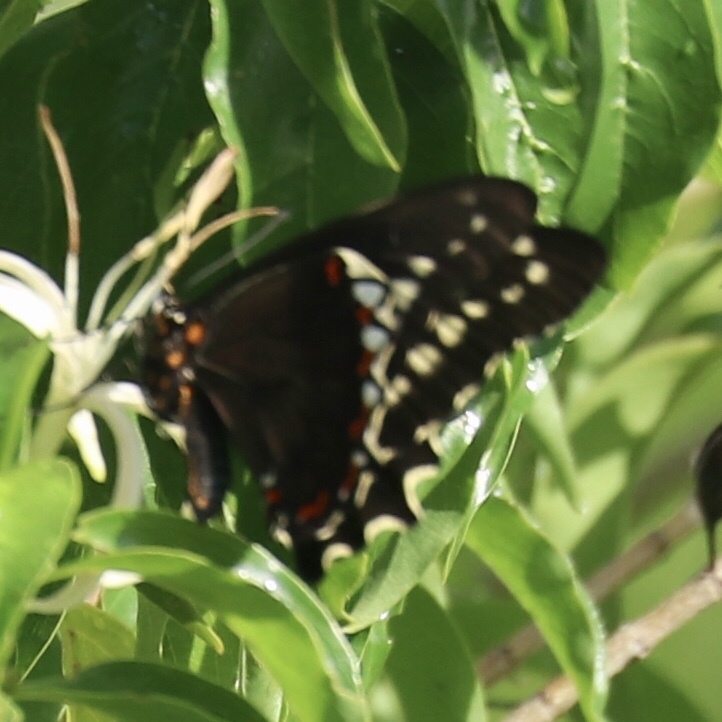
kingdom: Animalia
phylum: Arthropoda
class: Insecta
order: Lepidoptera
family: Papilionidae
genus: Battus
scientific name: Battus polydamas
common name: Polydamas swallowtail
